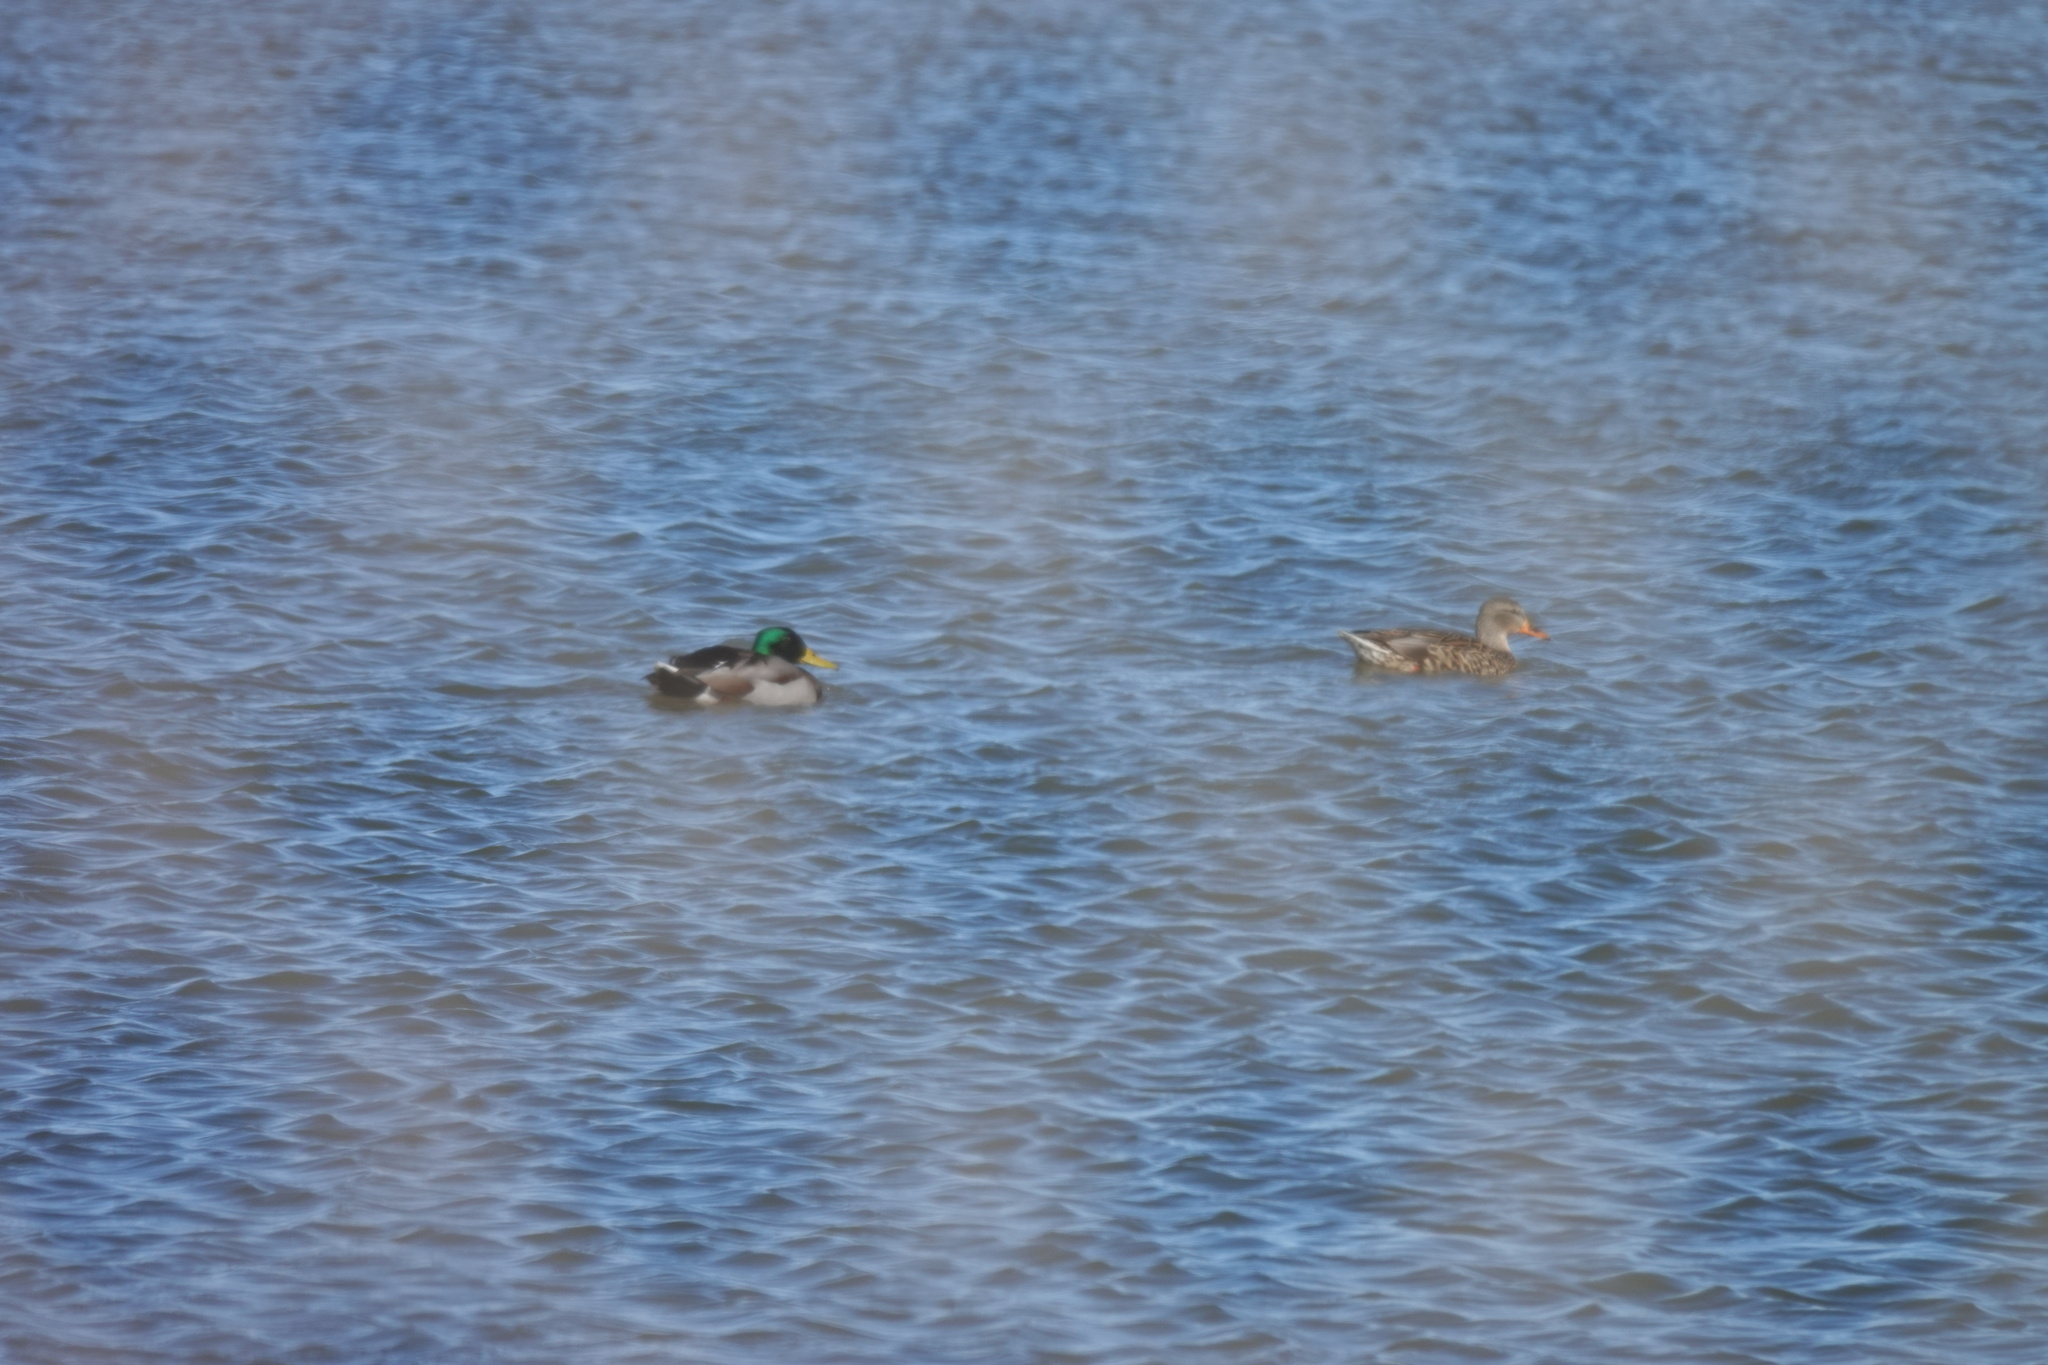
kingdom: Animalia
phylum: Chordata
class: Aves
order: Anseriformes
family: Anatidae
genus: Anas
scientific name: Anas platyrhynchos
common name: Mallard
